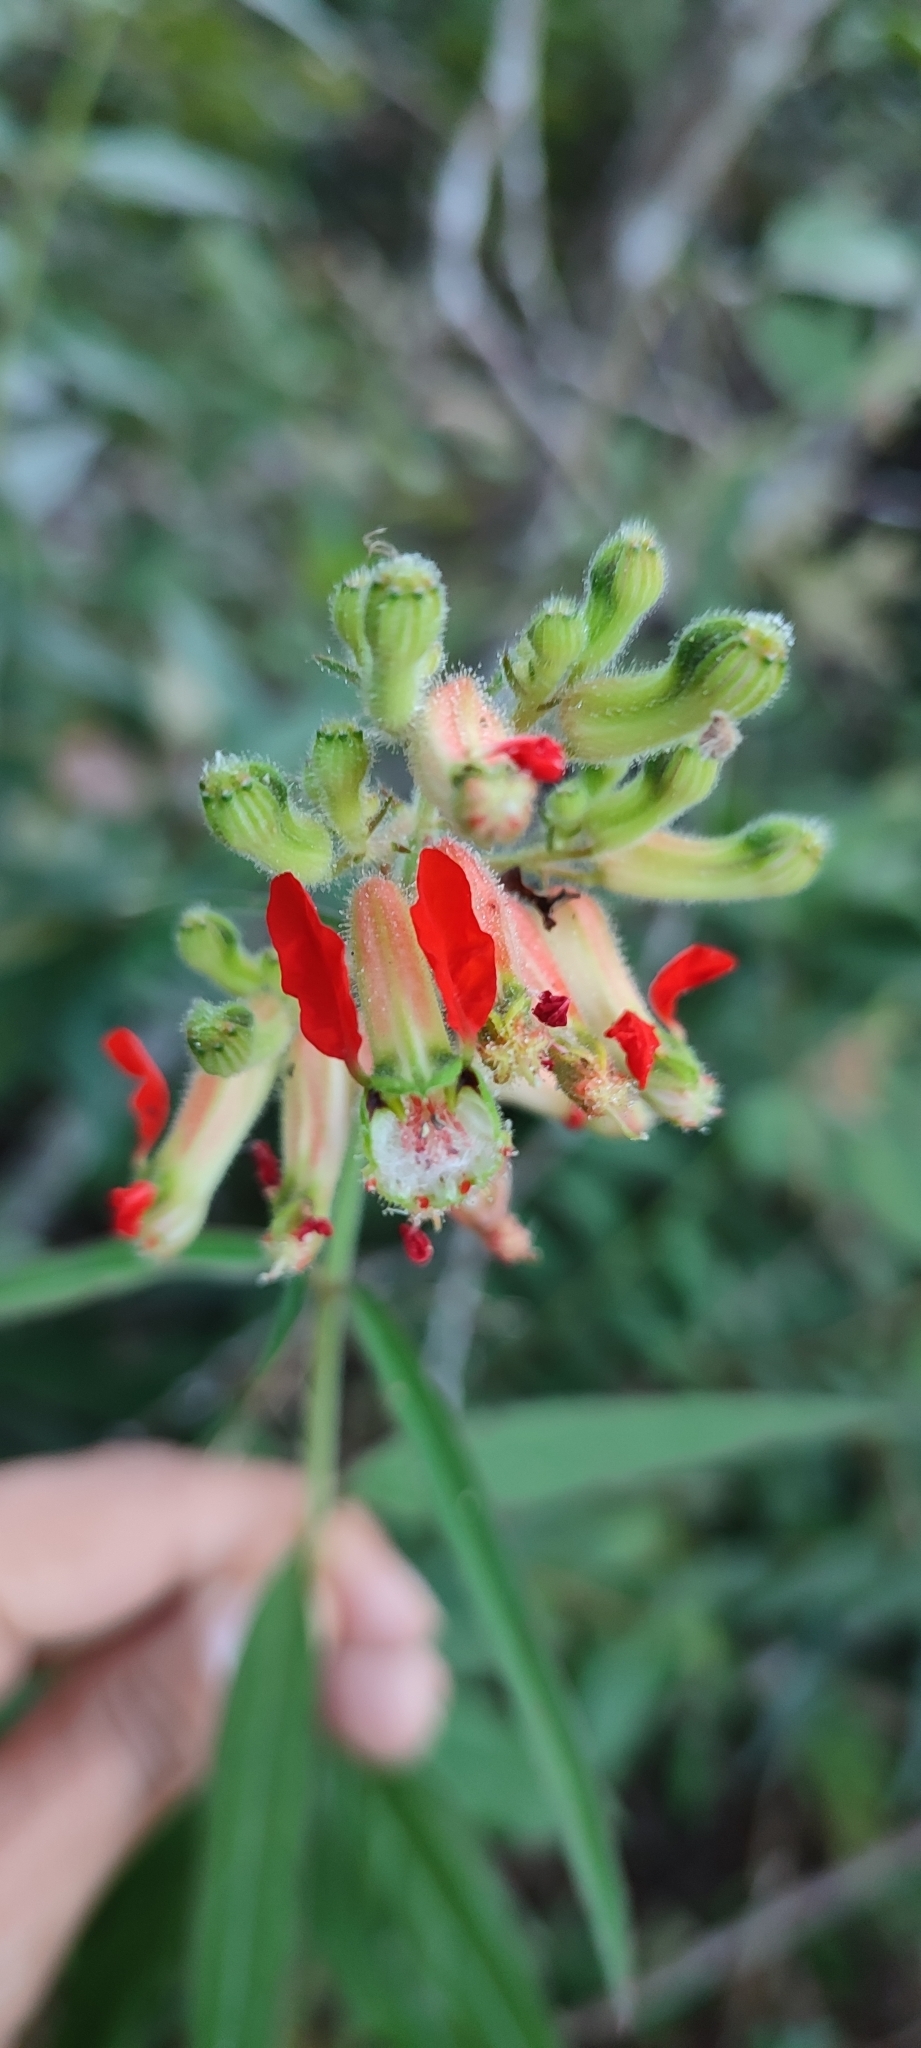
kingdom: Plantae
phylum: Tracheophyta
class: Magnoliopsida
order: Myrtales
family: Lythraceae
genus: Cuphea
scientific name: Cuphea hookeriana
